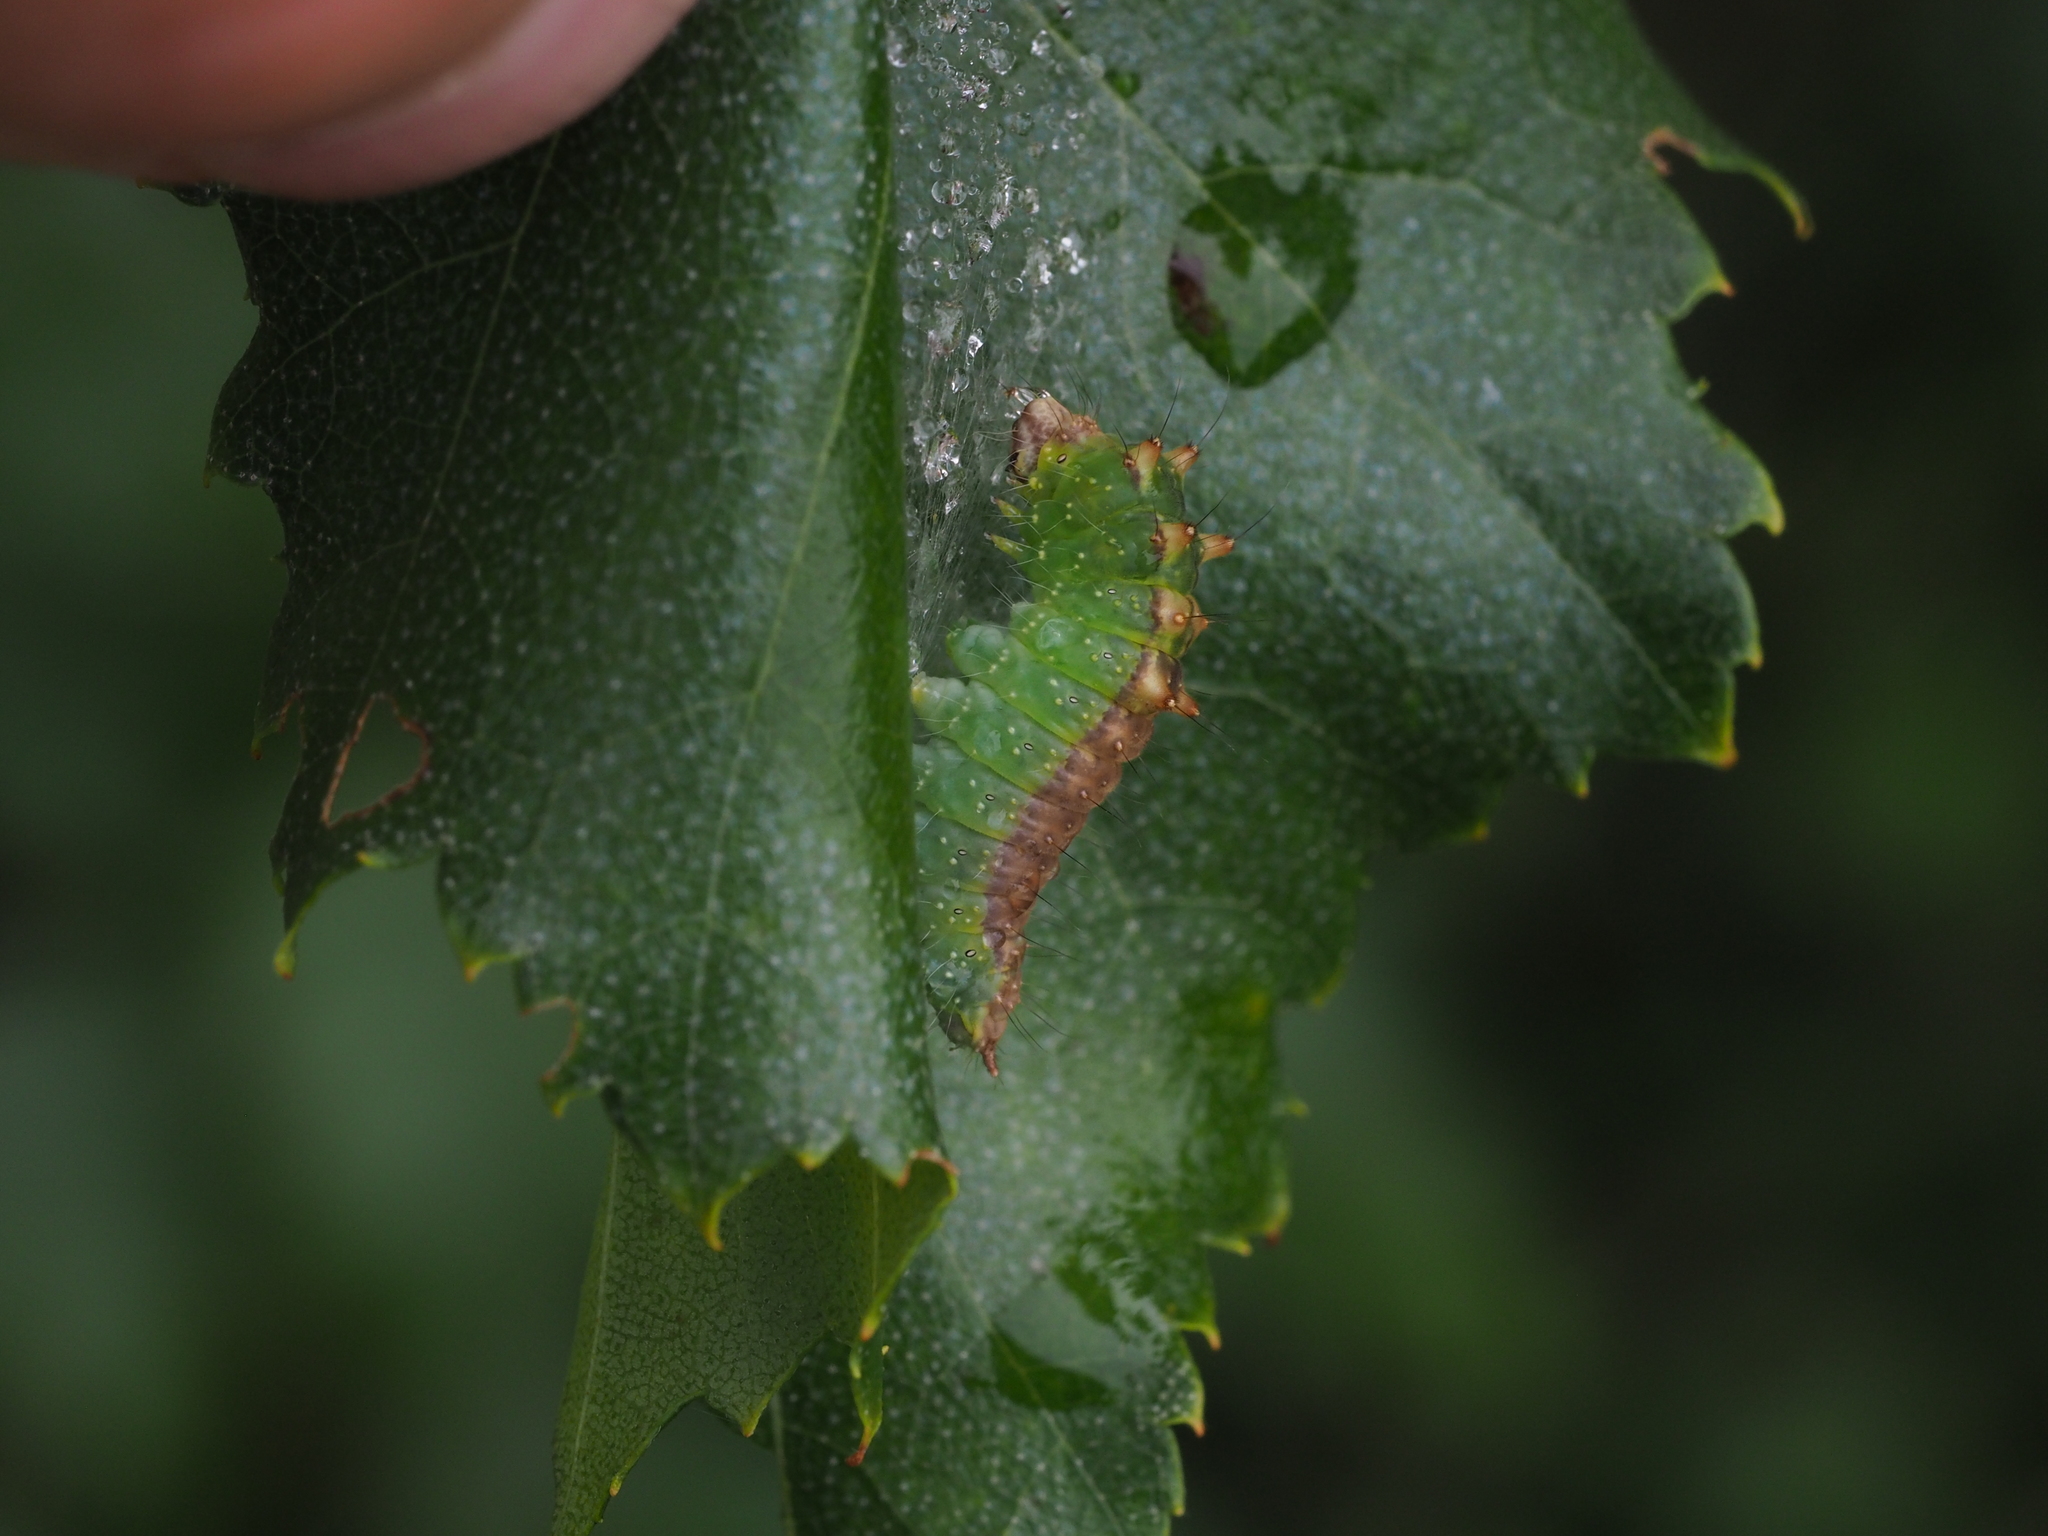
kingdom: Animalia
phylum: Arthropoda
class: Insecta
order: Lepidoptera
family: Drepanidae
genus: Drepana
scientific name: Drepana falcataria
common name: Pebble hook-tip
